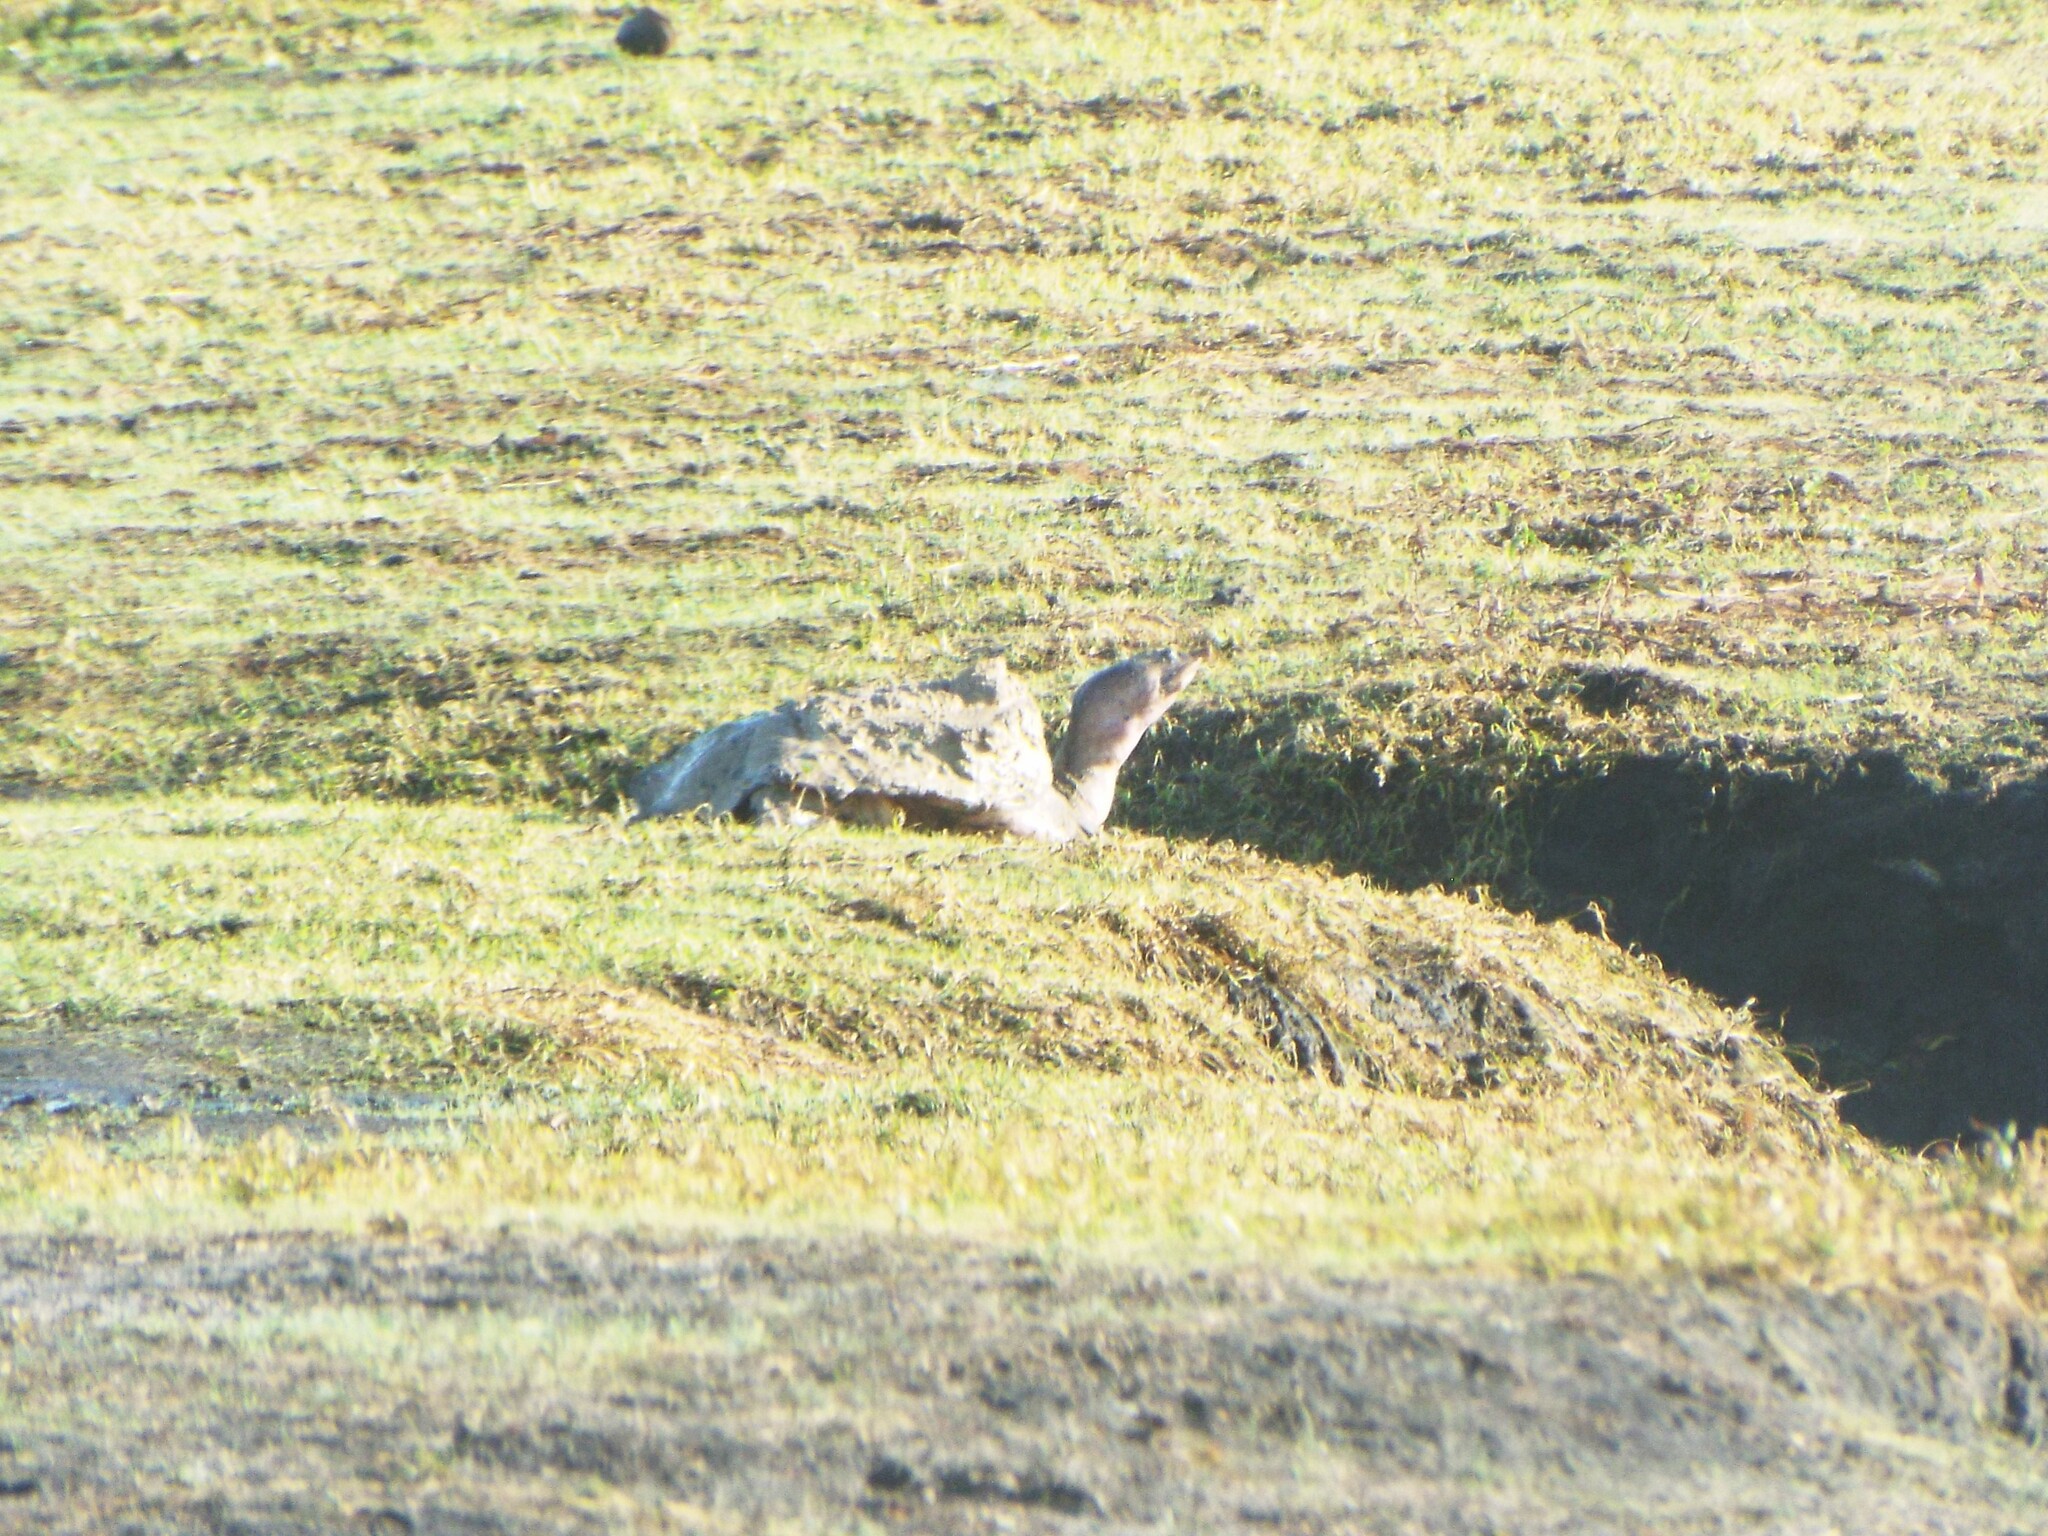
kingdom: Animalia
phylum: Chordata
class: Testudines
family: Trionychidae
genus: Apalone
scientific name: Apalone ferox
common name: Florida softshell turtle
